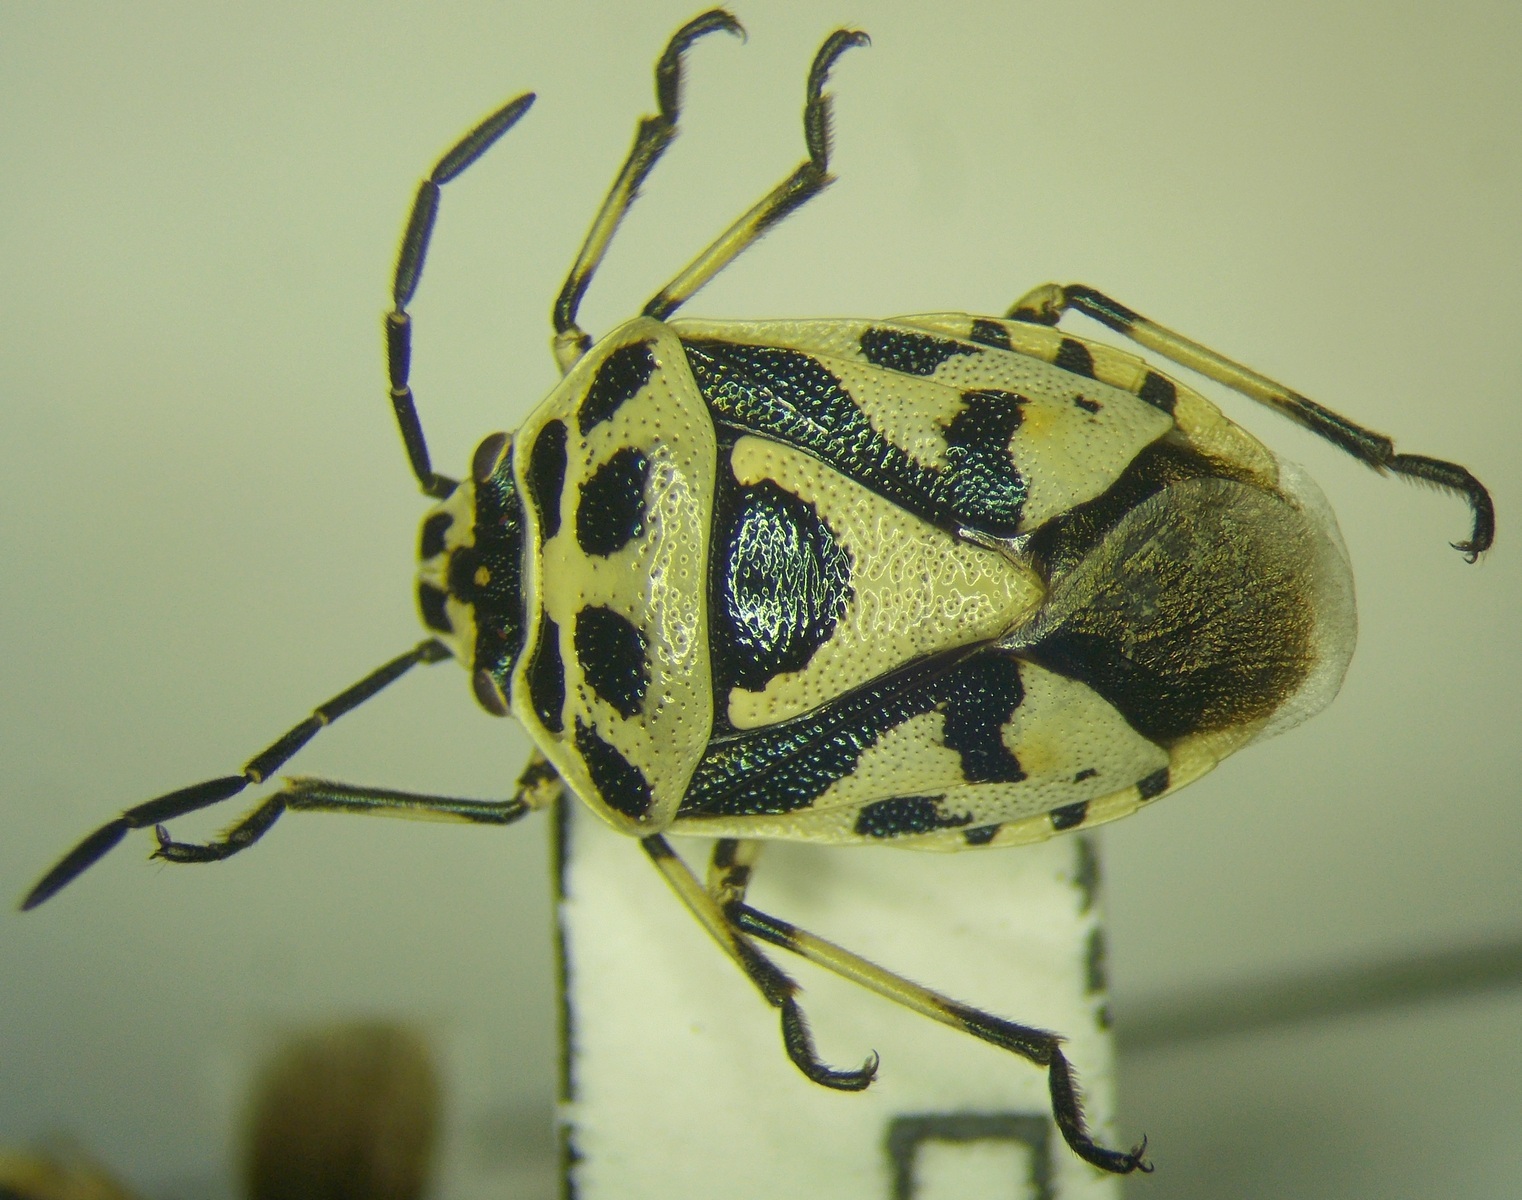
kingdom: Animalia
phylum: Arthropoda
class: Insecta
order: Hemiptera
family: Pentatomidae
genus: Eurydema
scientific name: Eurydema ornata
